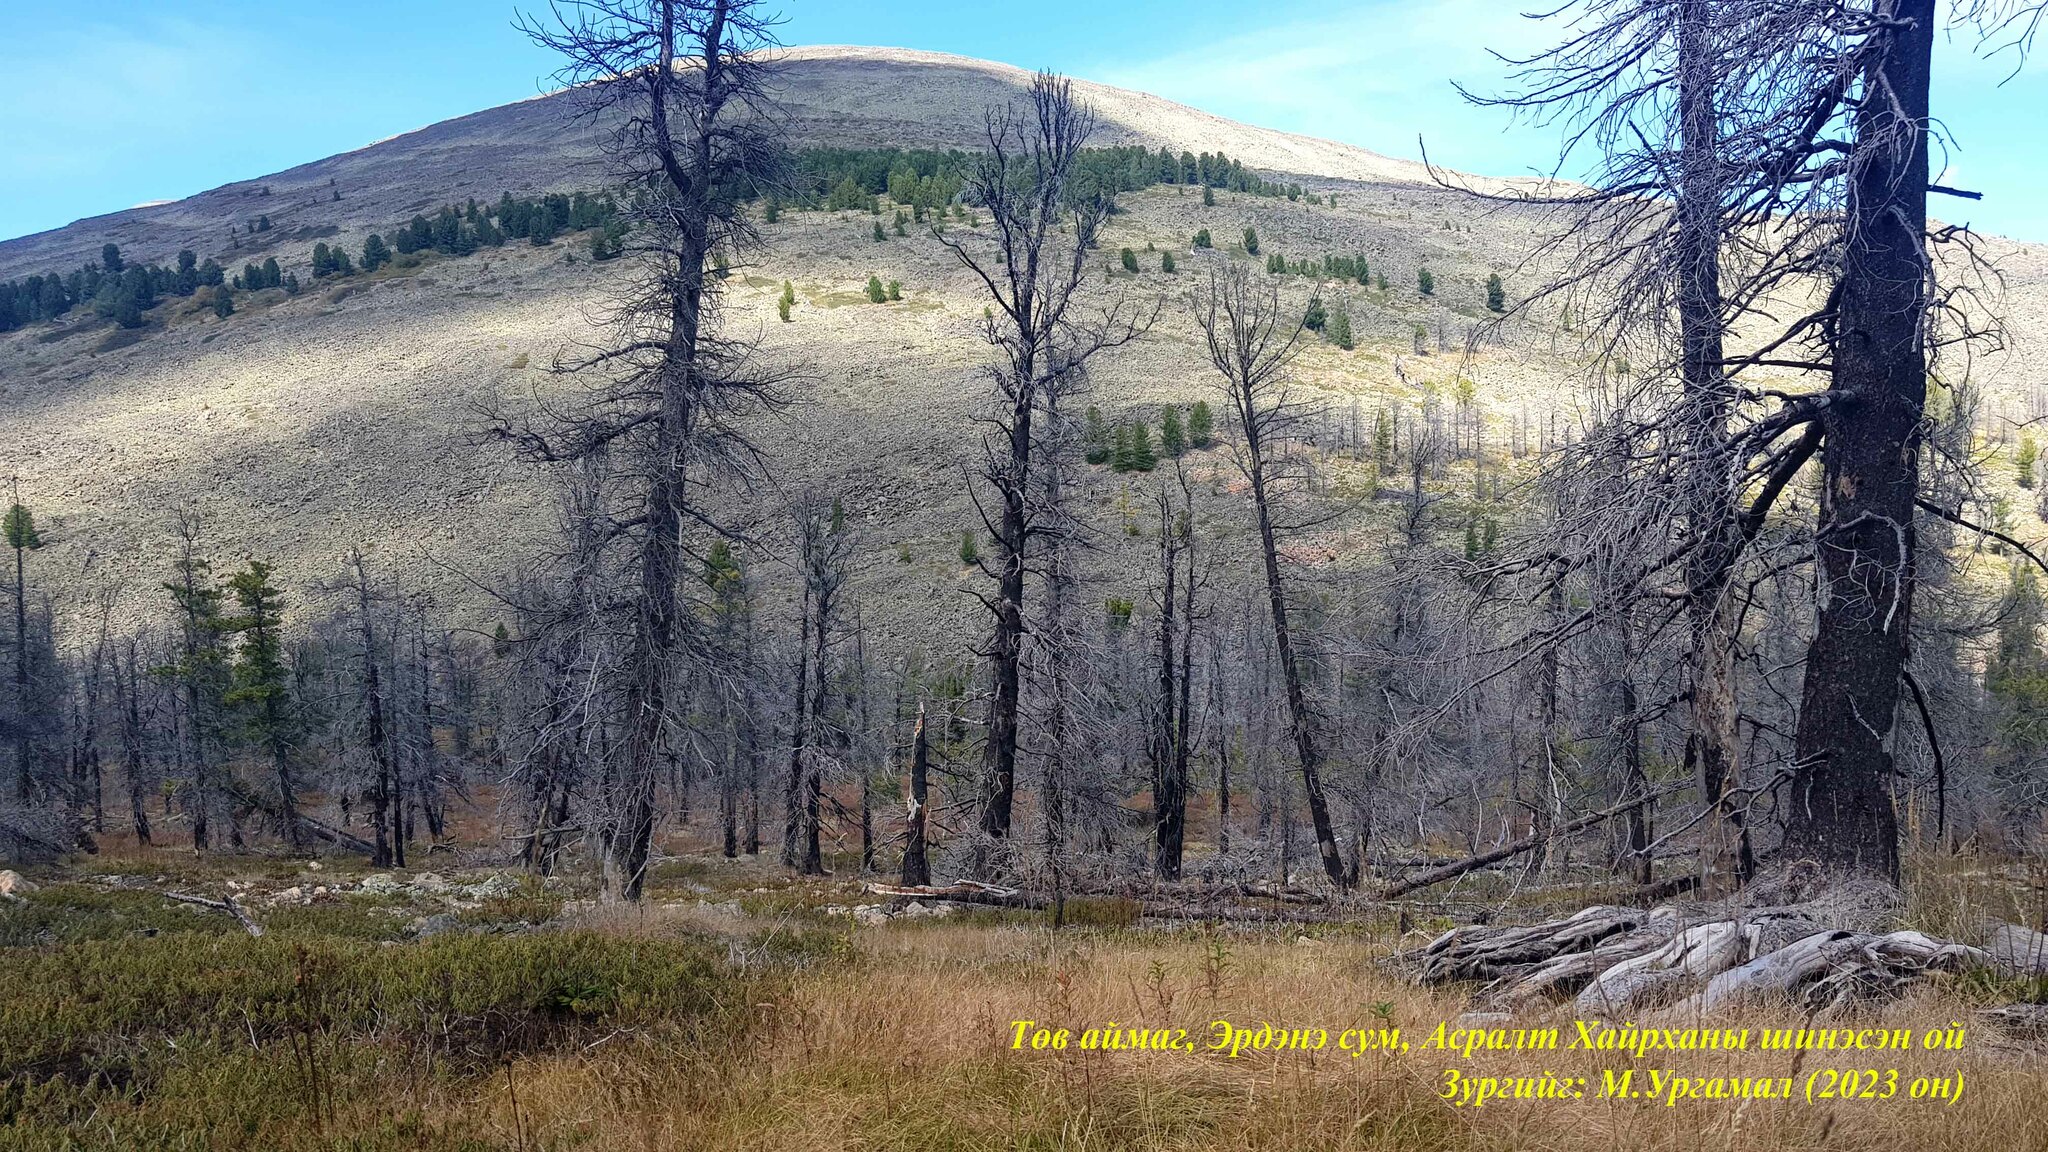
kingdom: Plantae
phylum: Tracheophyta
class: Pinopsida
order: Pinales
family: Pinaceae
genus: Larix
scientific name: Larix sibirica
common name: Siberian larch
